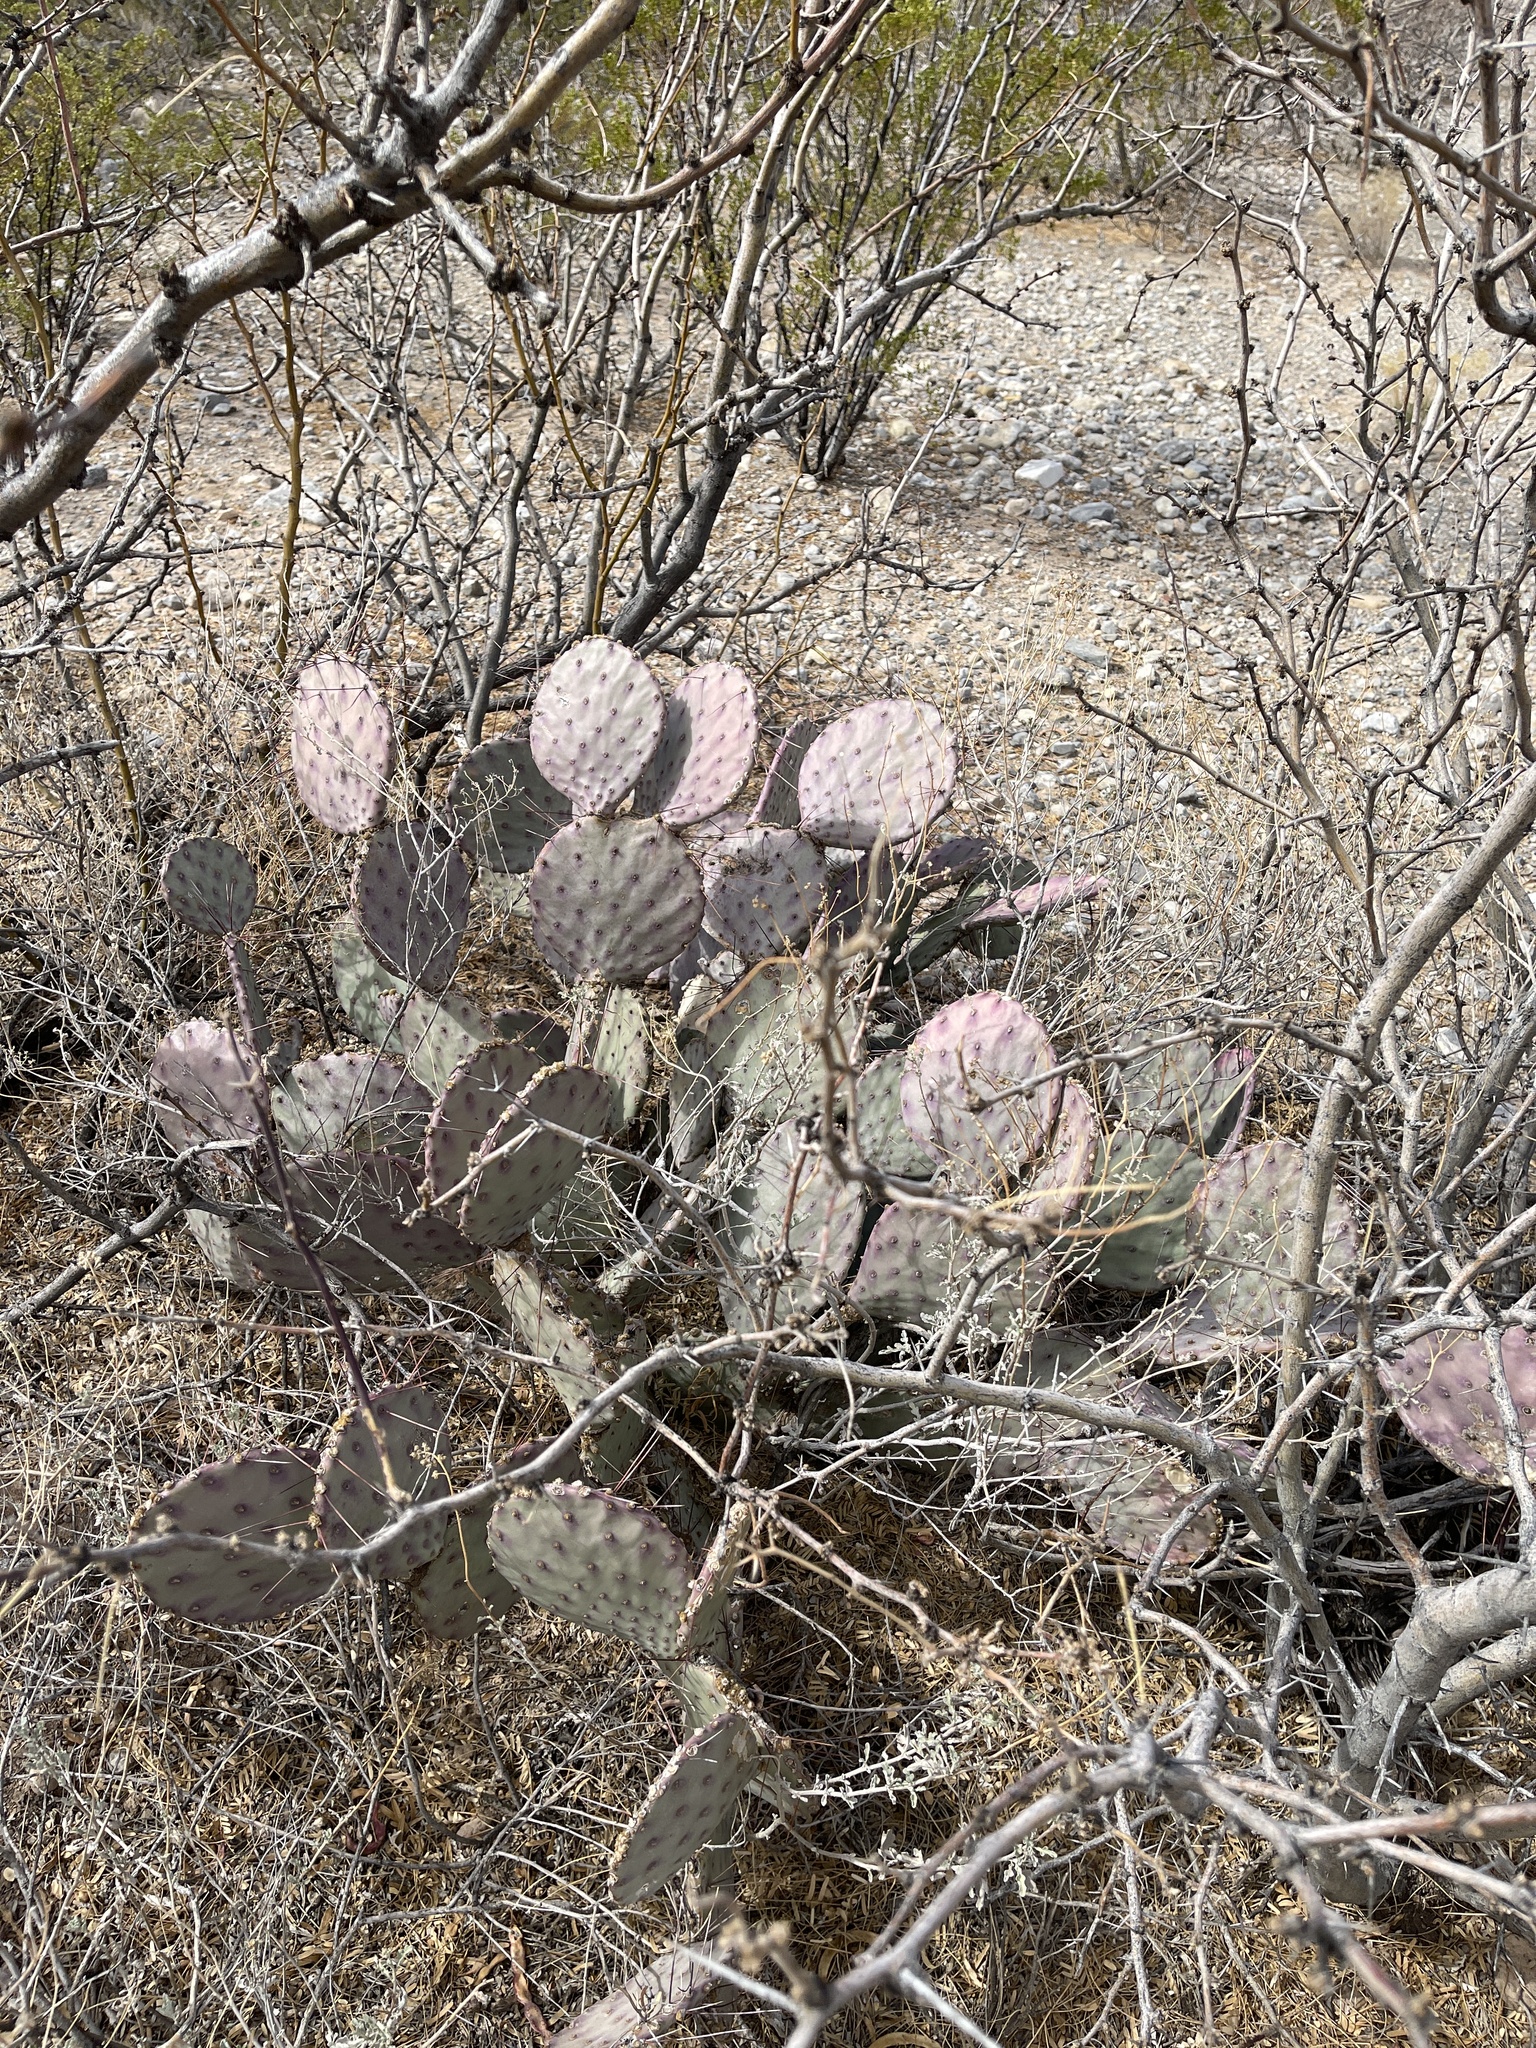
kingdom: Plantae
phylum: Tracheophyta
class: Magnoliopsida
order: Caryophyllales
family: Cactaceae
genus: Opuntia
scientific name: Opuntia macrocentra
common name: Purple prickly-pear
